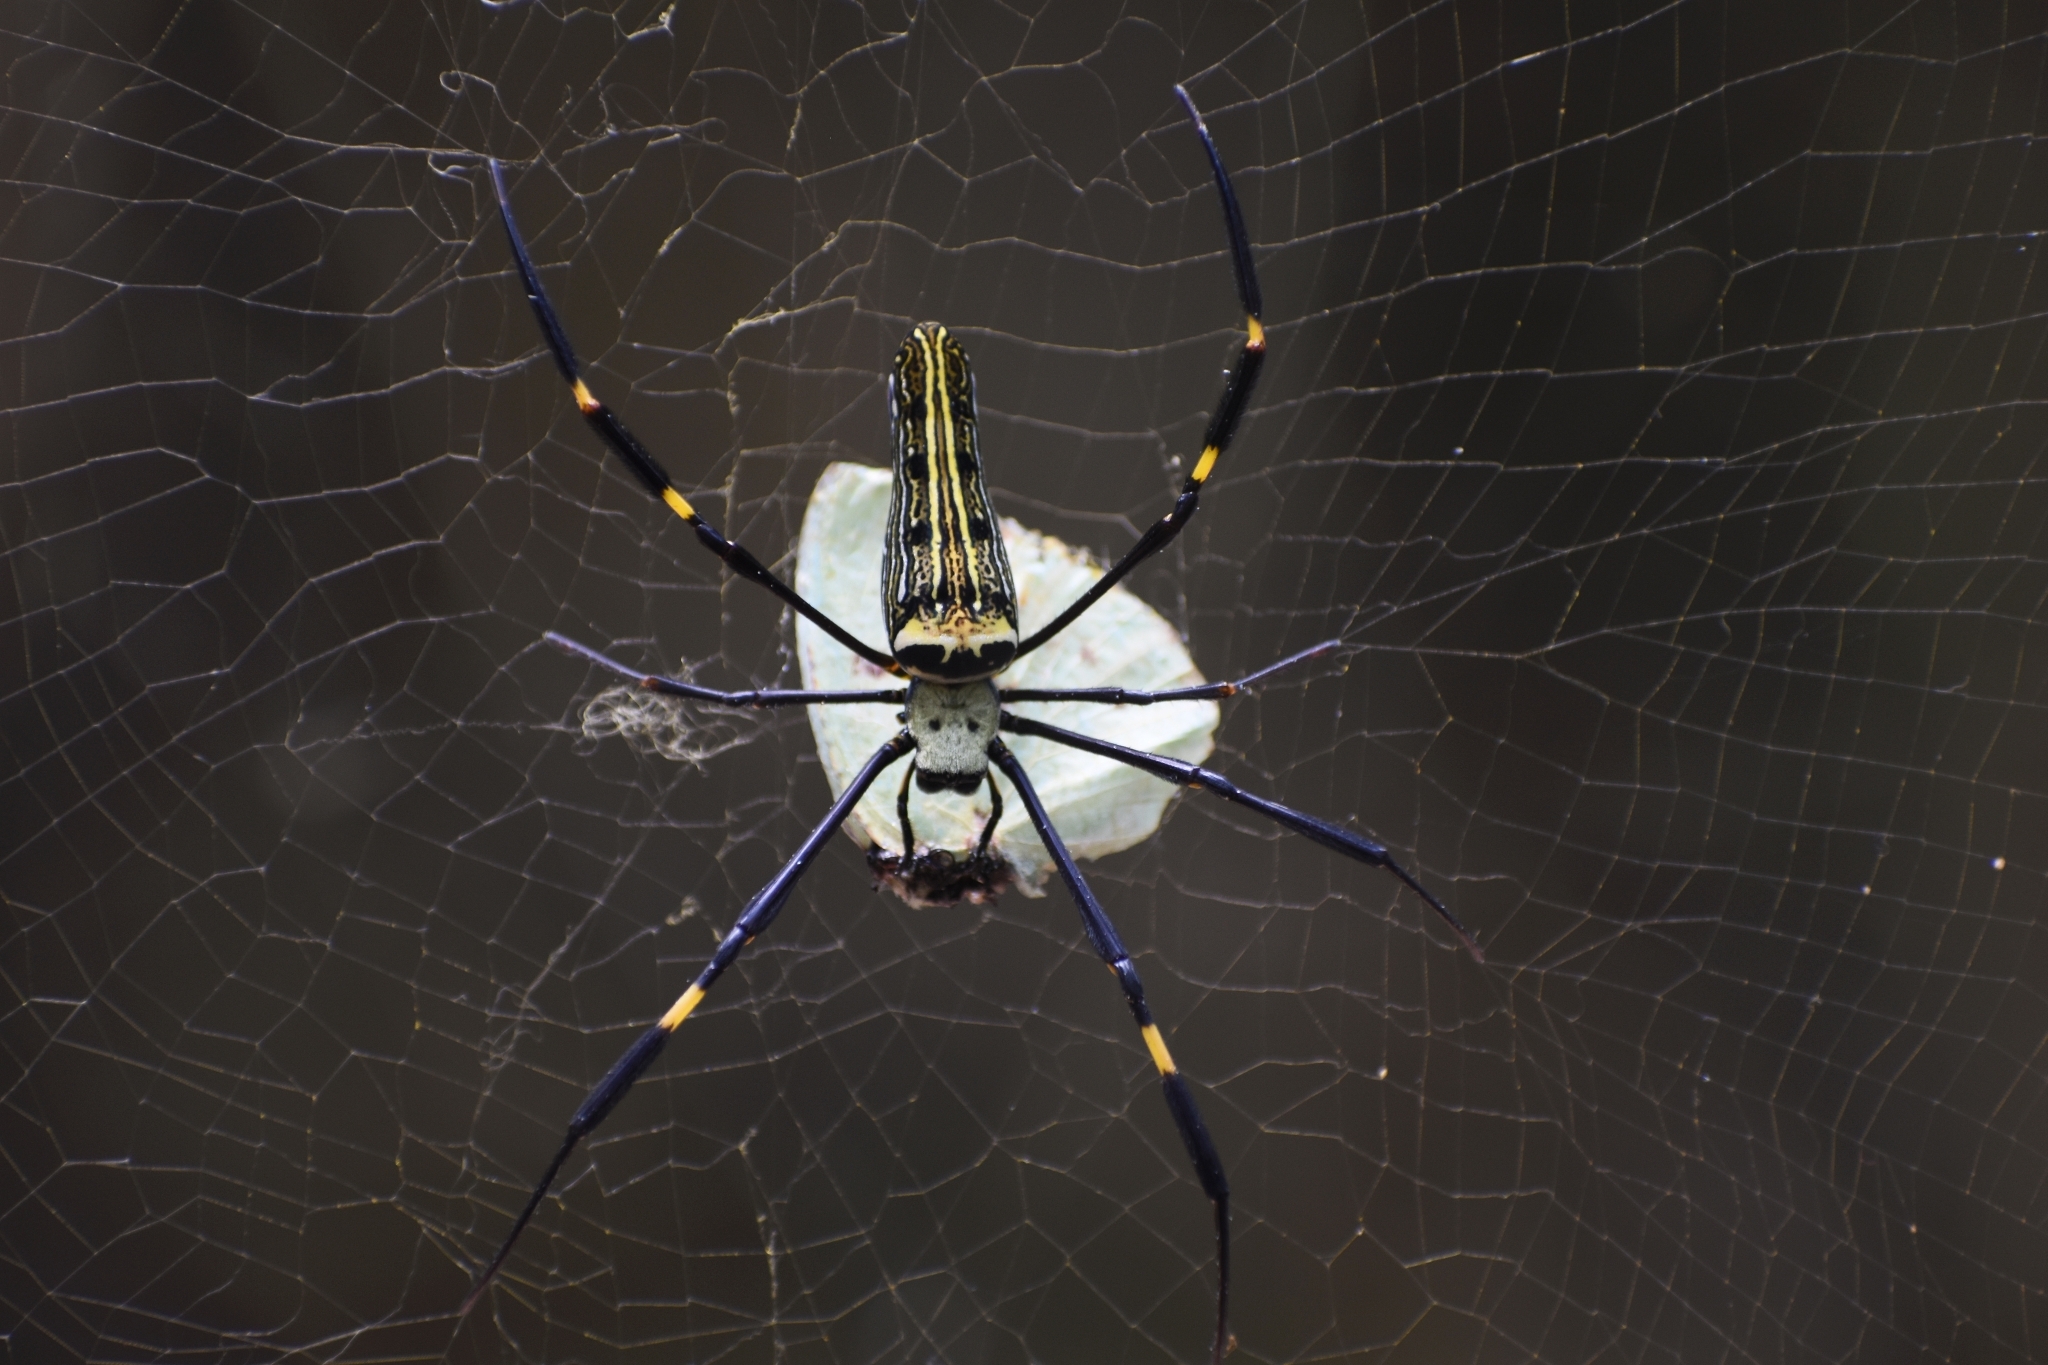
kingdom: Animalia
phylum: Arthropoda
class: Arachnida
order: Araneae
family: Araneidae
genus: Nephila
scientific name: Nephila pilipes
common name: Giant golden orb weaver
